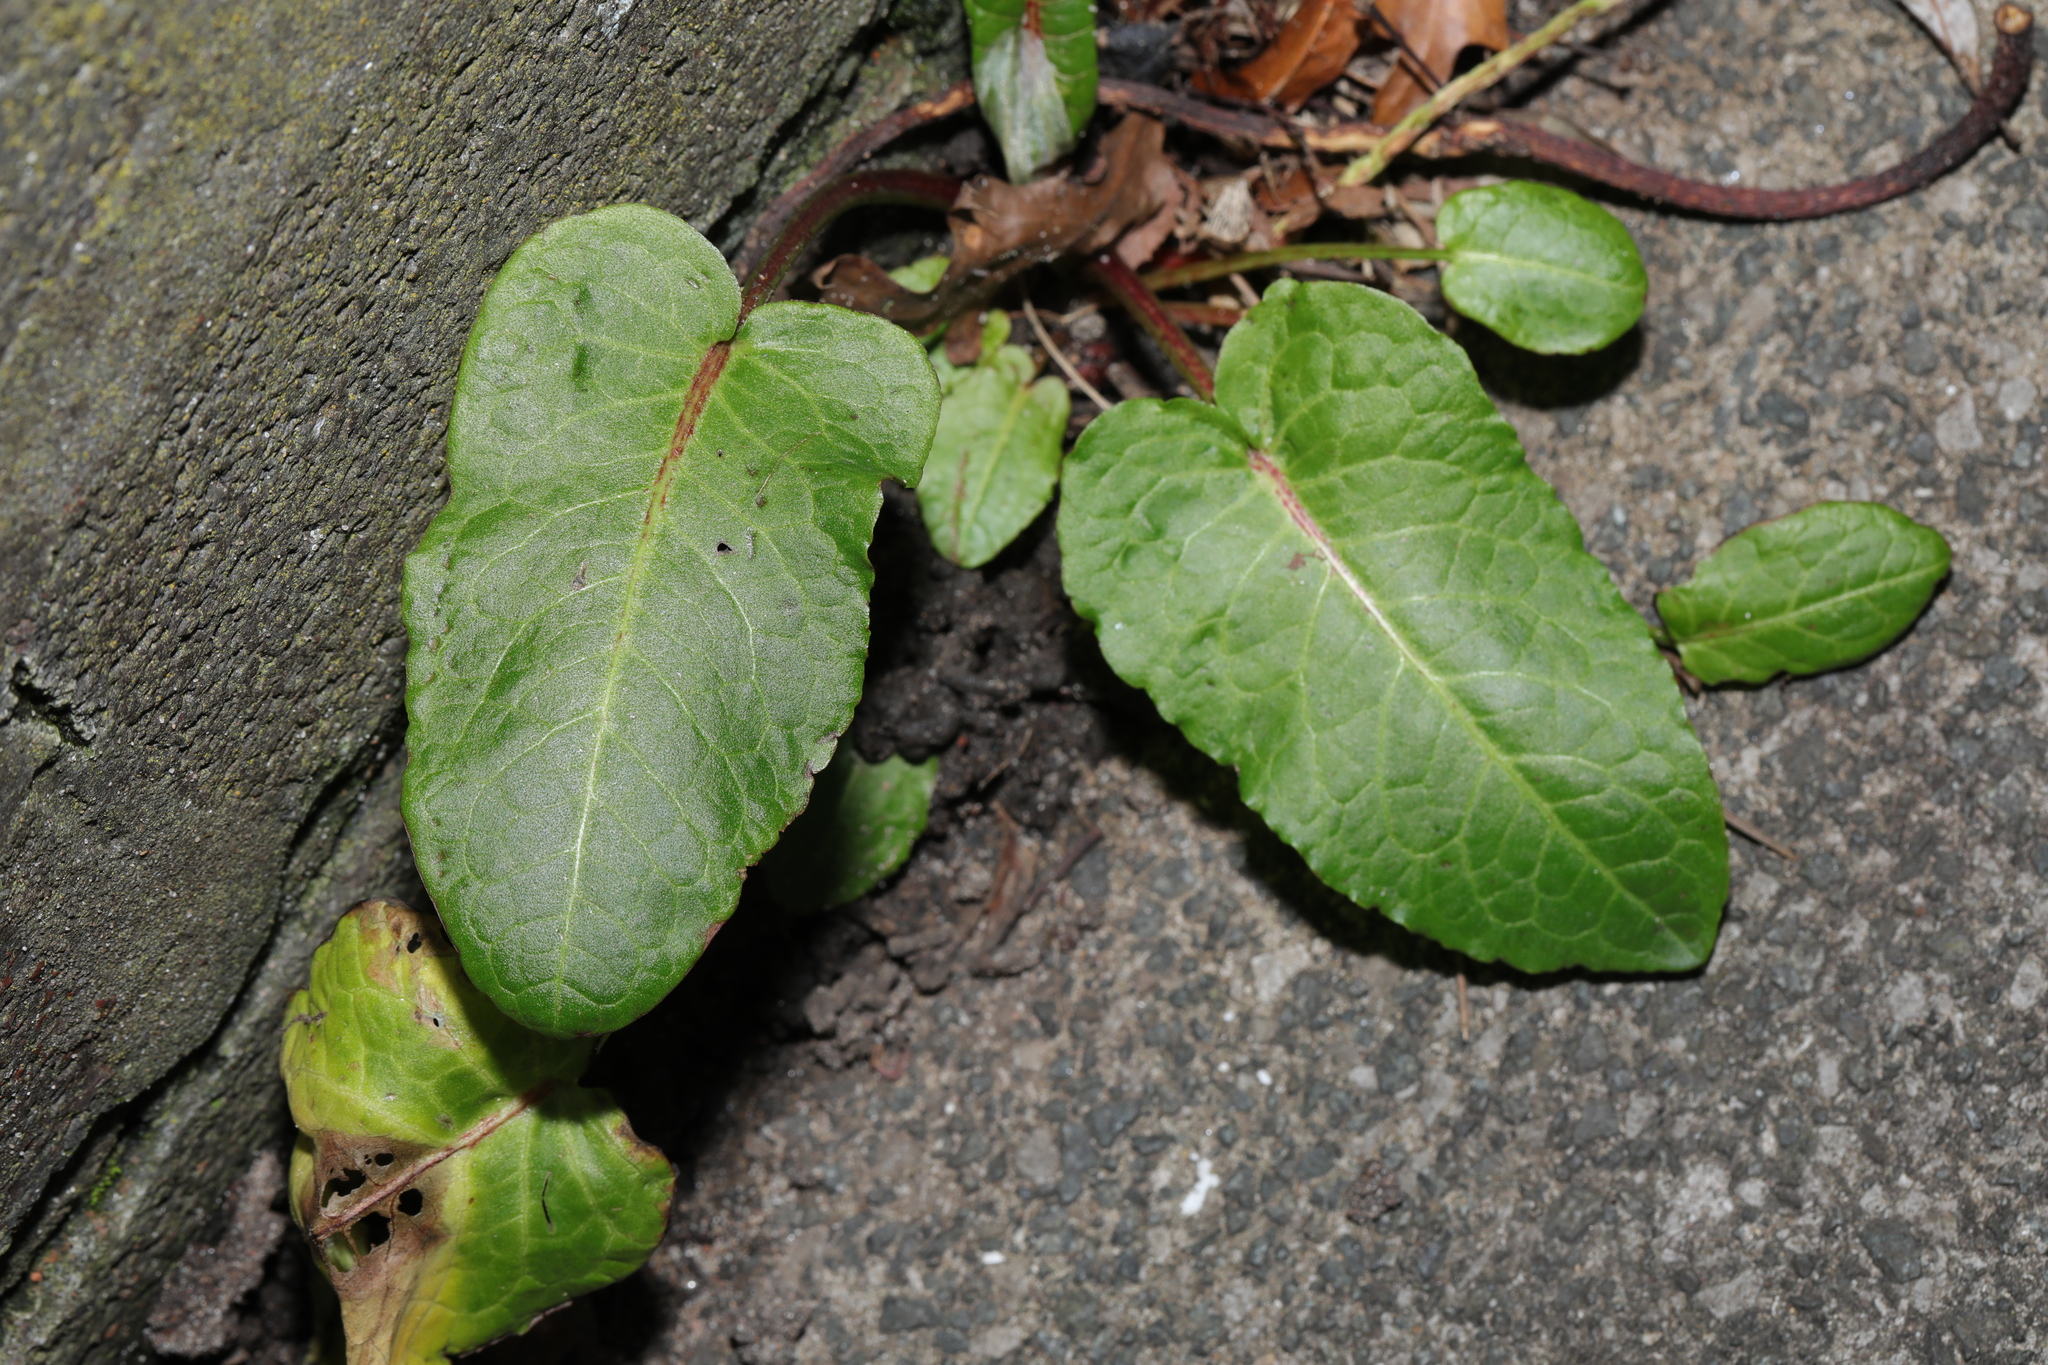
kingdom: Plantae
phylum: Tracheophyta
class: Magnoliopsida
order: Caryophyllales
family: Polygonaceae
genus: Rumex
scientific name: Rumex obtusifolius
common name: Bitter dock
